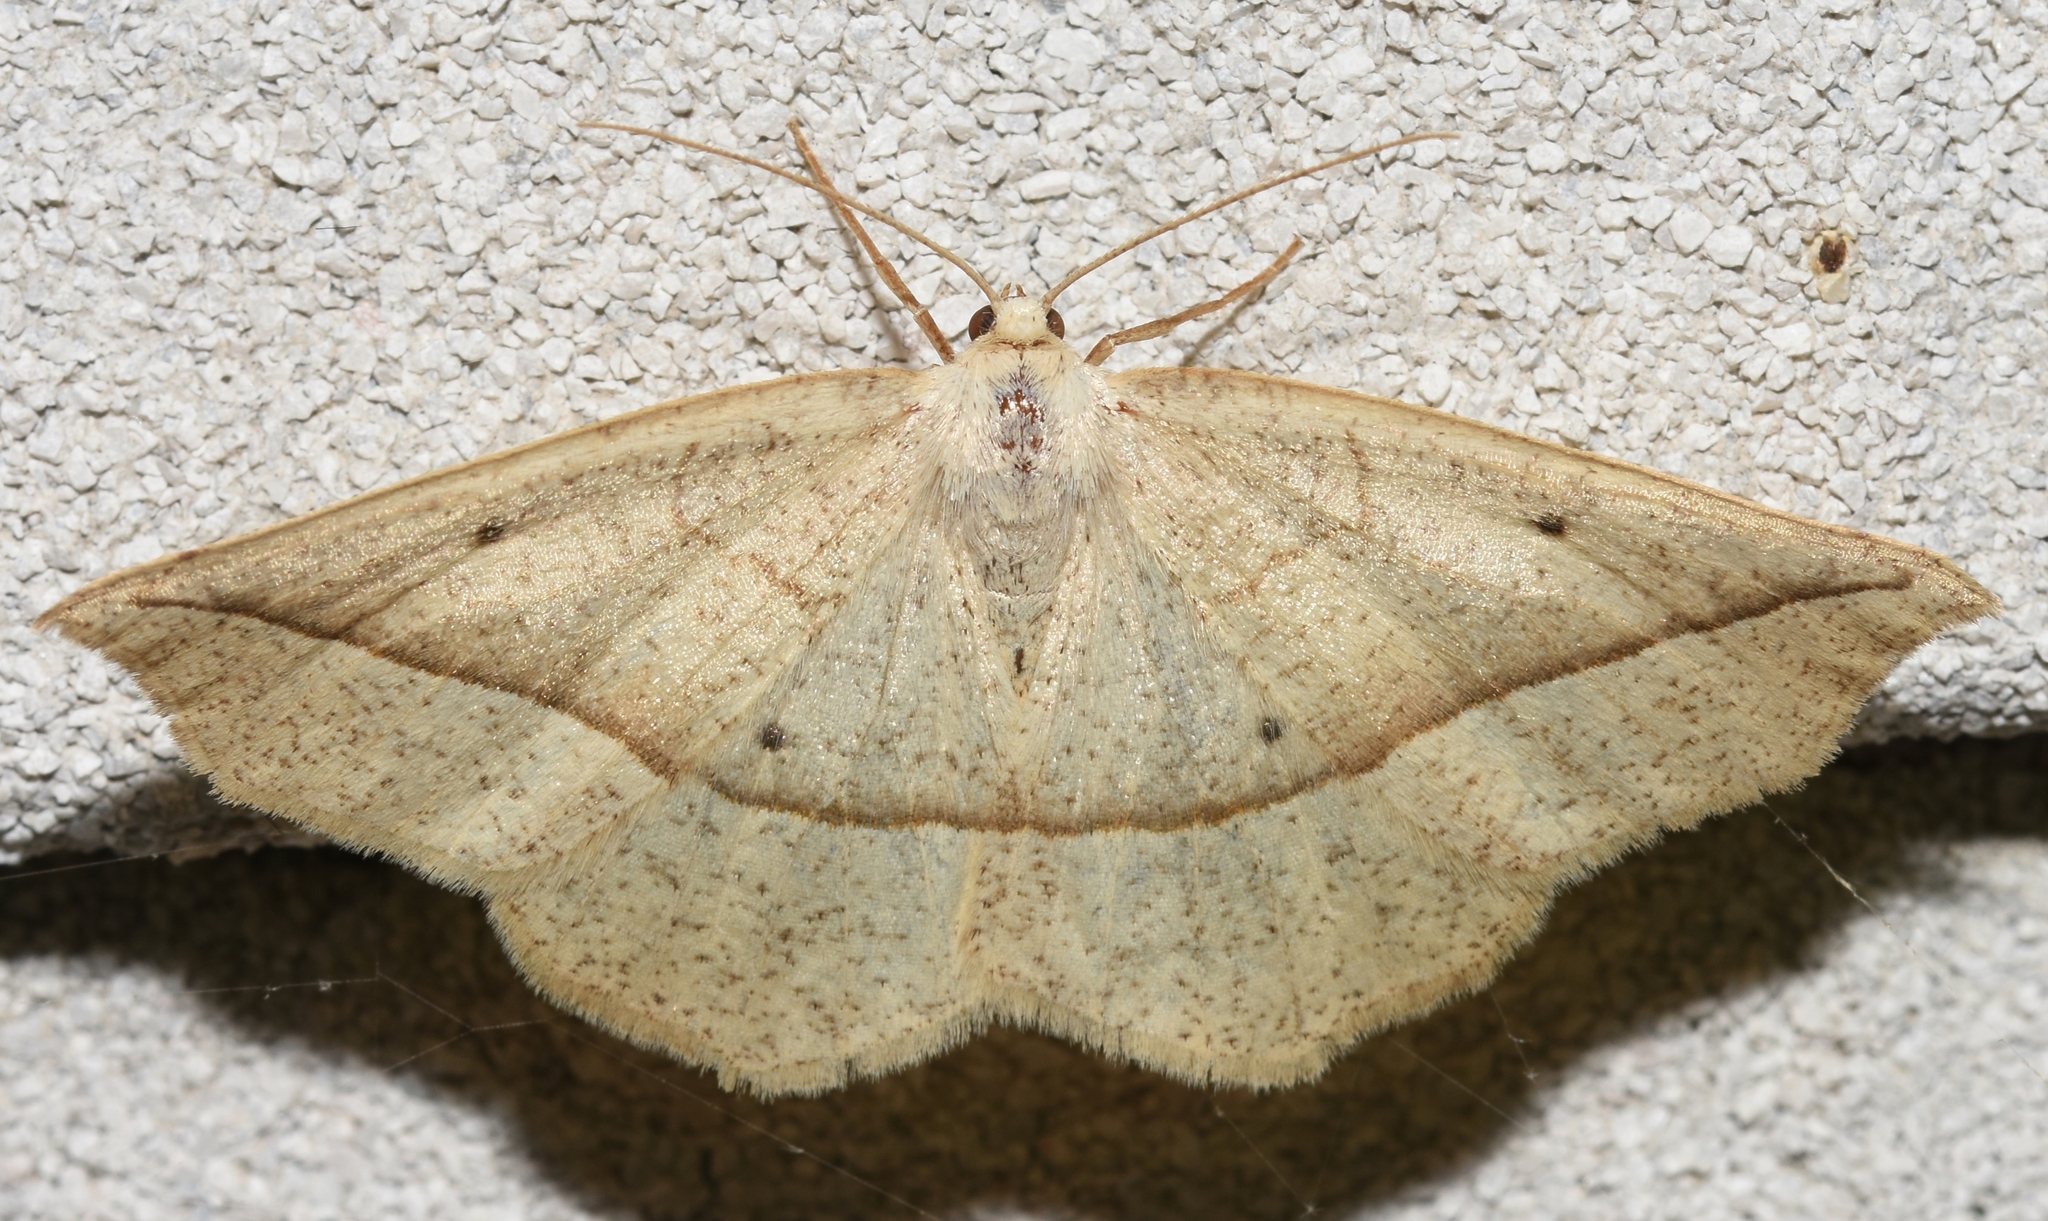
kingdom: Animalia
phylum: Arthropoda
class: Insecta
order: Lepidoptera
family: Geometridae
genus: Eusarca
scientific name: Eusarca confusaria
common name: Confused eusarca
